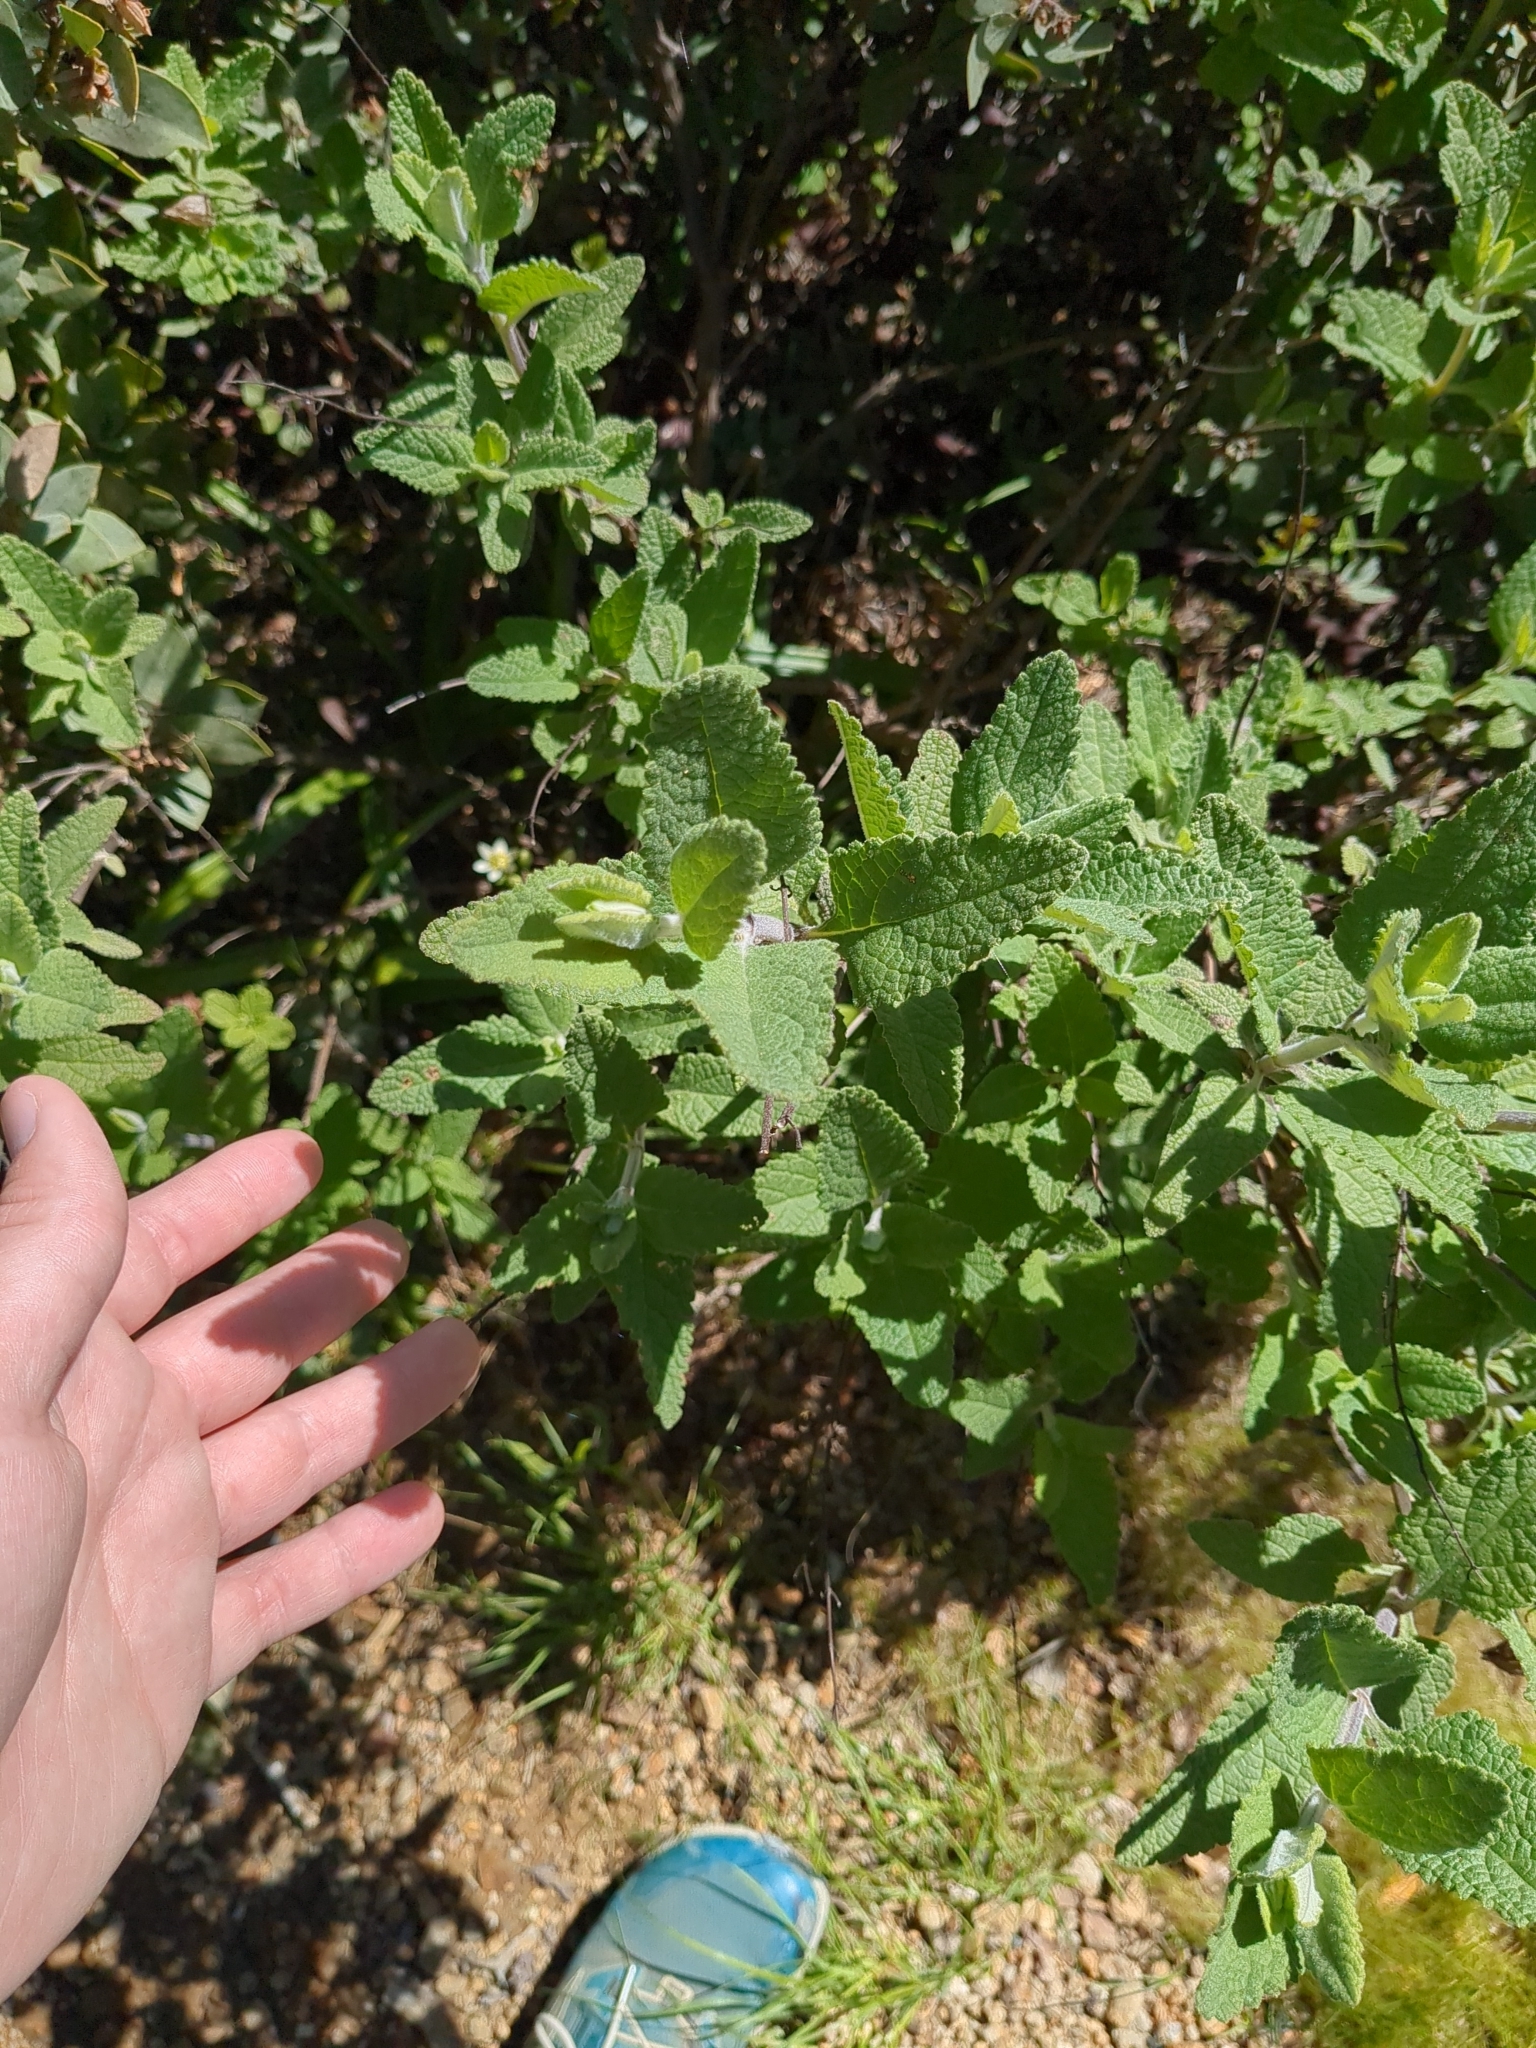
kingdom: Plantae
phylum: Tracheophyta
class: Magnoliopsida
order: Lamiales
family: Lamiaceae
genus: Lepechinia
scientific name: Lepechinia calycina
